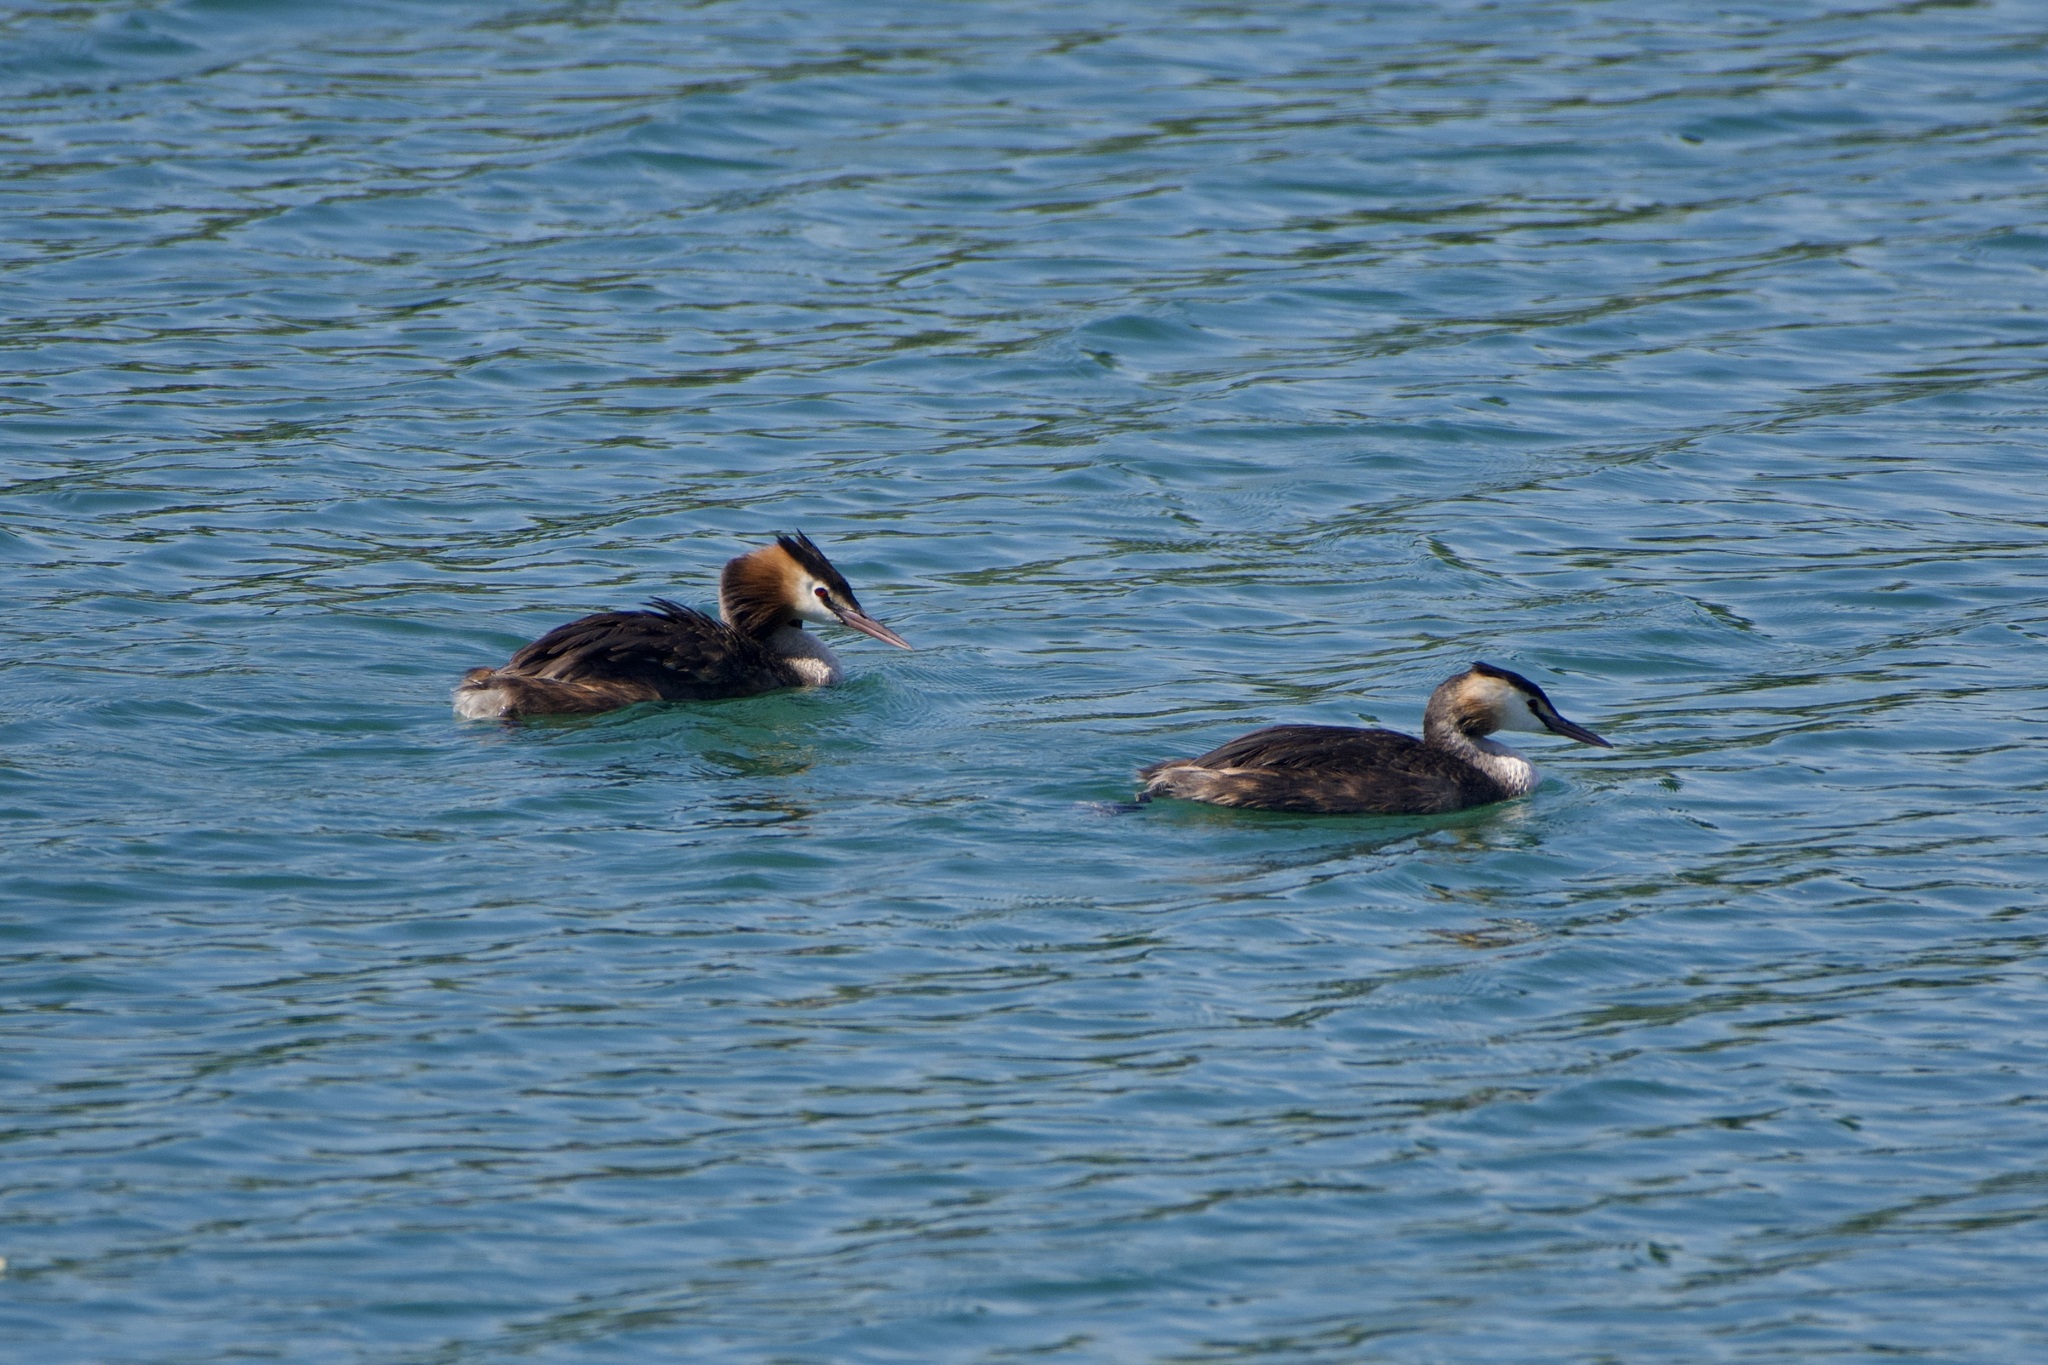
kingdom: Animalia
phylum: Chordata
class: Aves
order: Podicipediformes
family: Podicipedidae
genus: Podiceps
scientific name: Podiceps cristatus
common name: Great crested grebe
